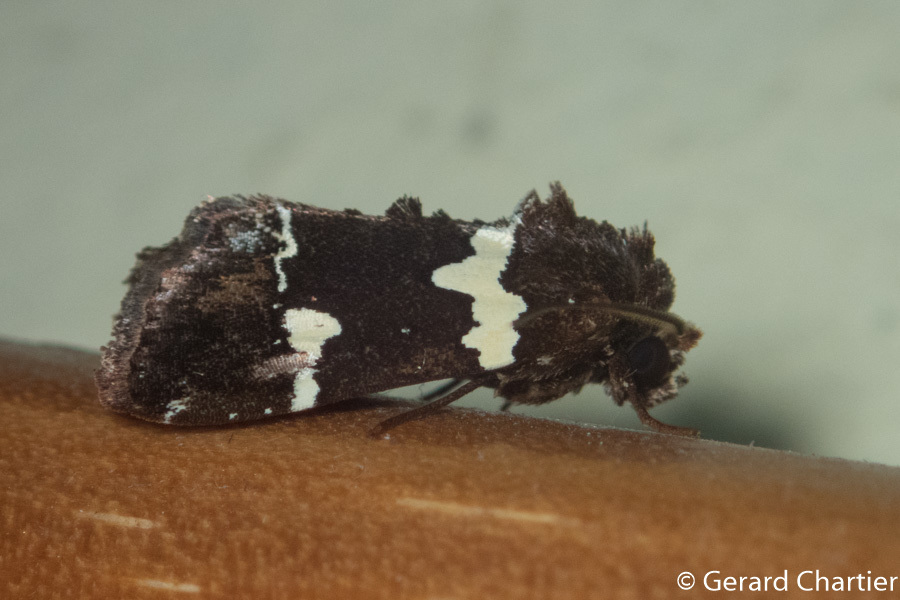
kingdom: Animalia
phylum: Arthropoda
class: Insecta
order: Lepidoptera
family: Noctuidae
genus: Borbotana
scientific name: Borbotana nivifascia
